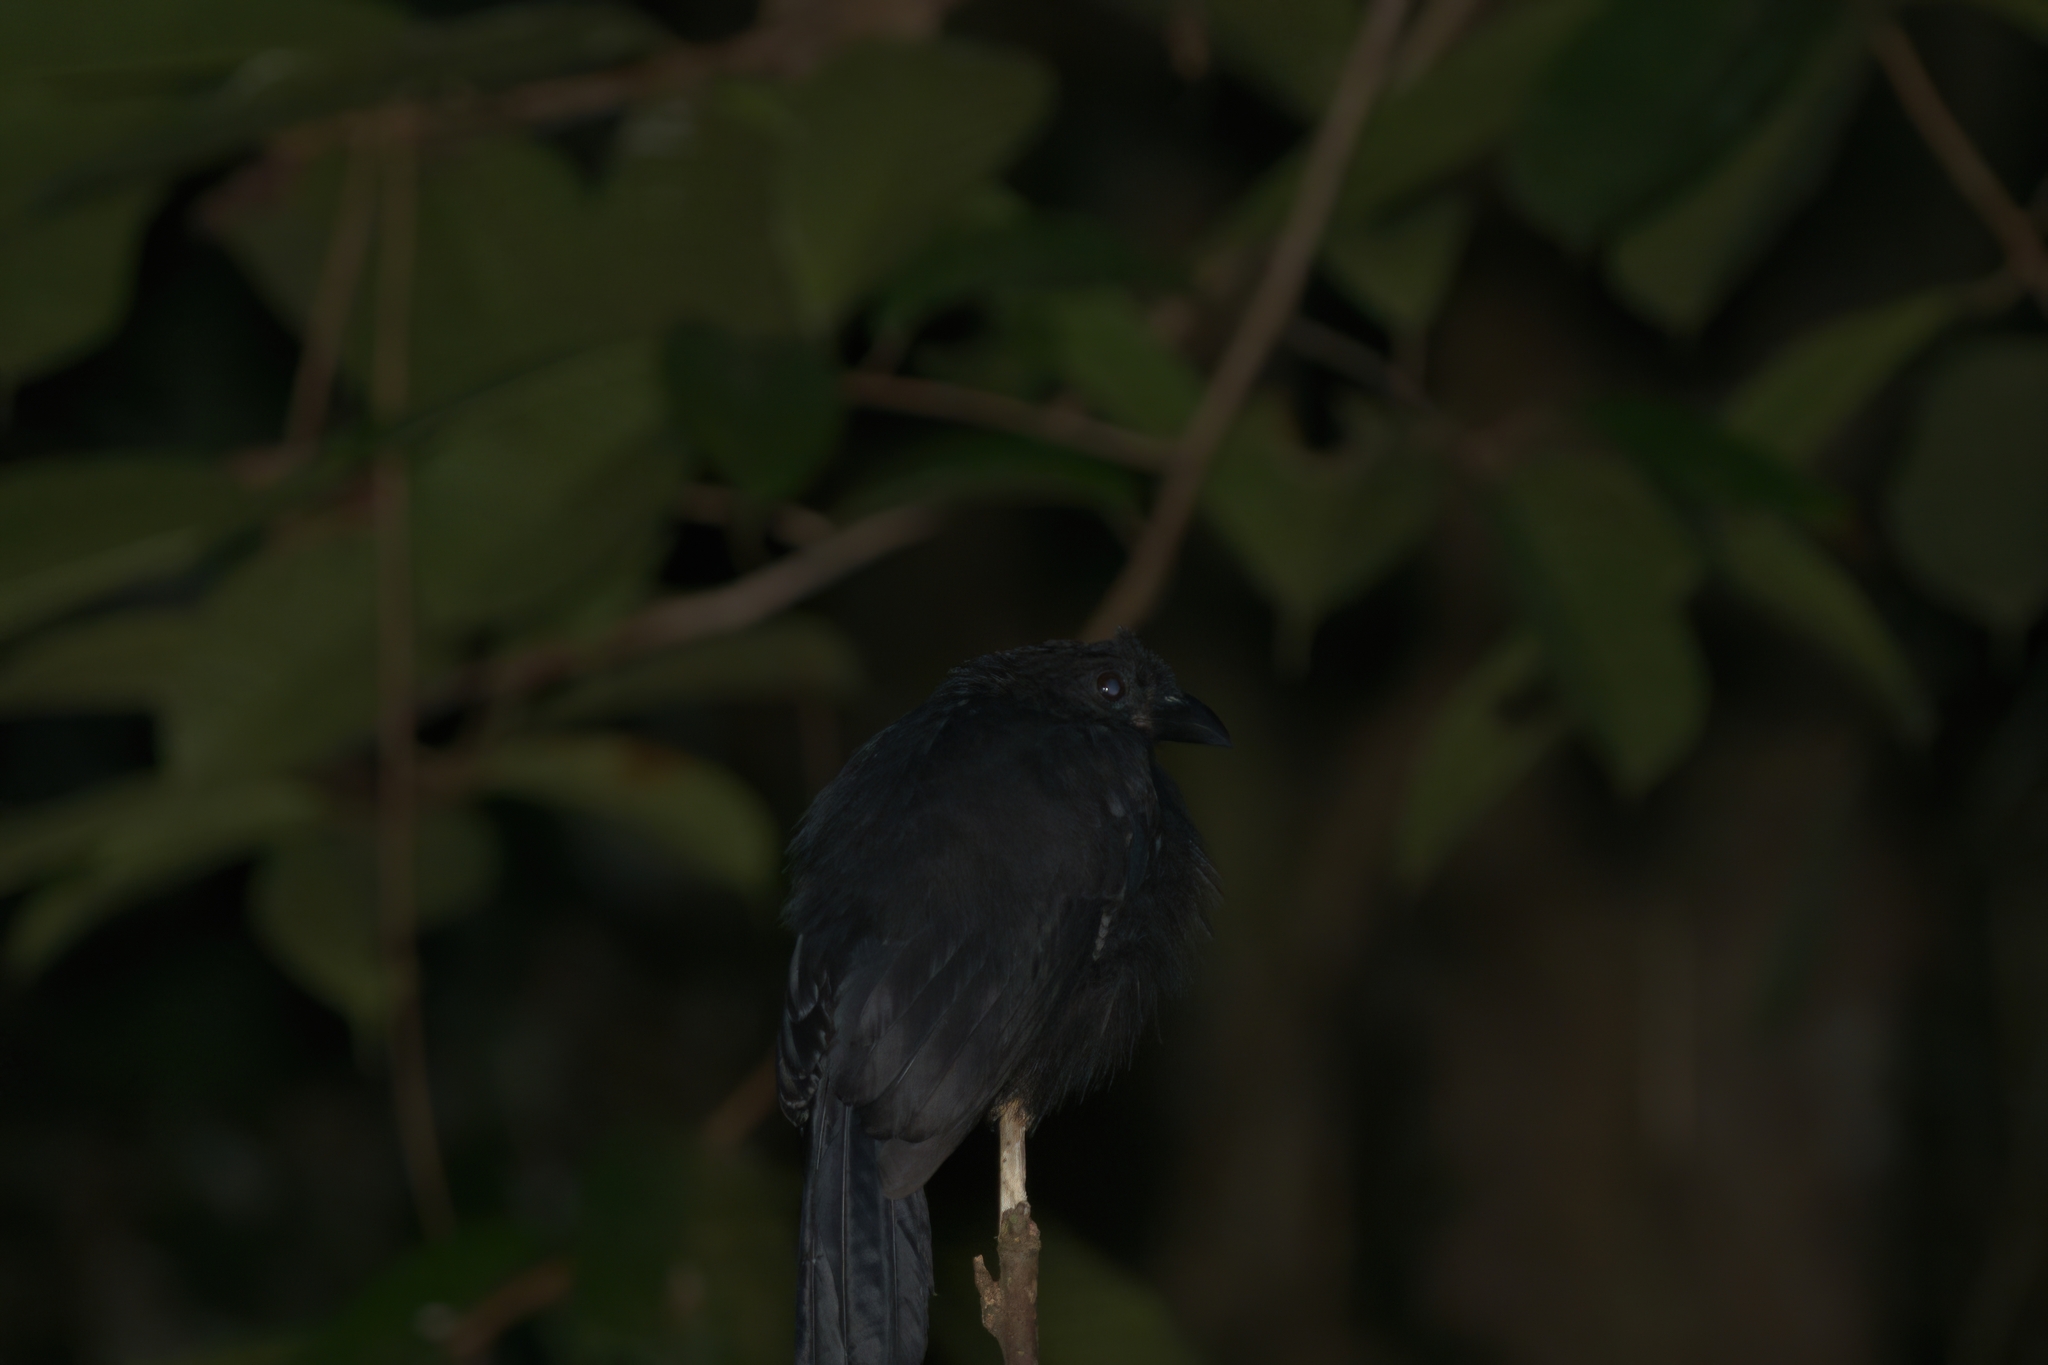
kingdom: Animalia
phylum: Chordata
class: Aves
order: Passeriformes
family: Corvidae
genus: Platysmurus
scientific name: Platysmurus leucopterus
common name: Black magpie
